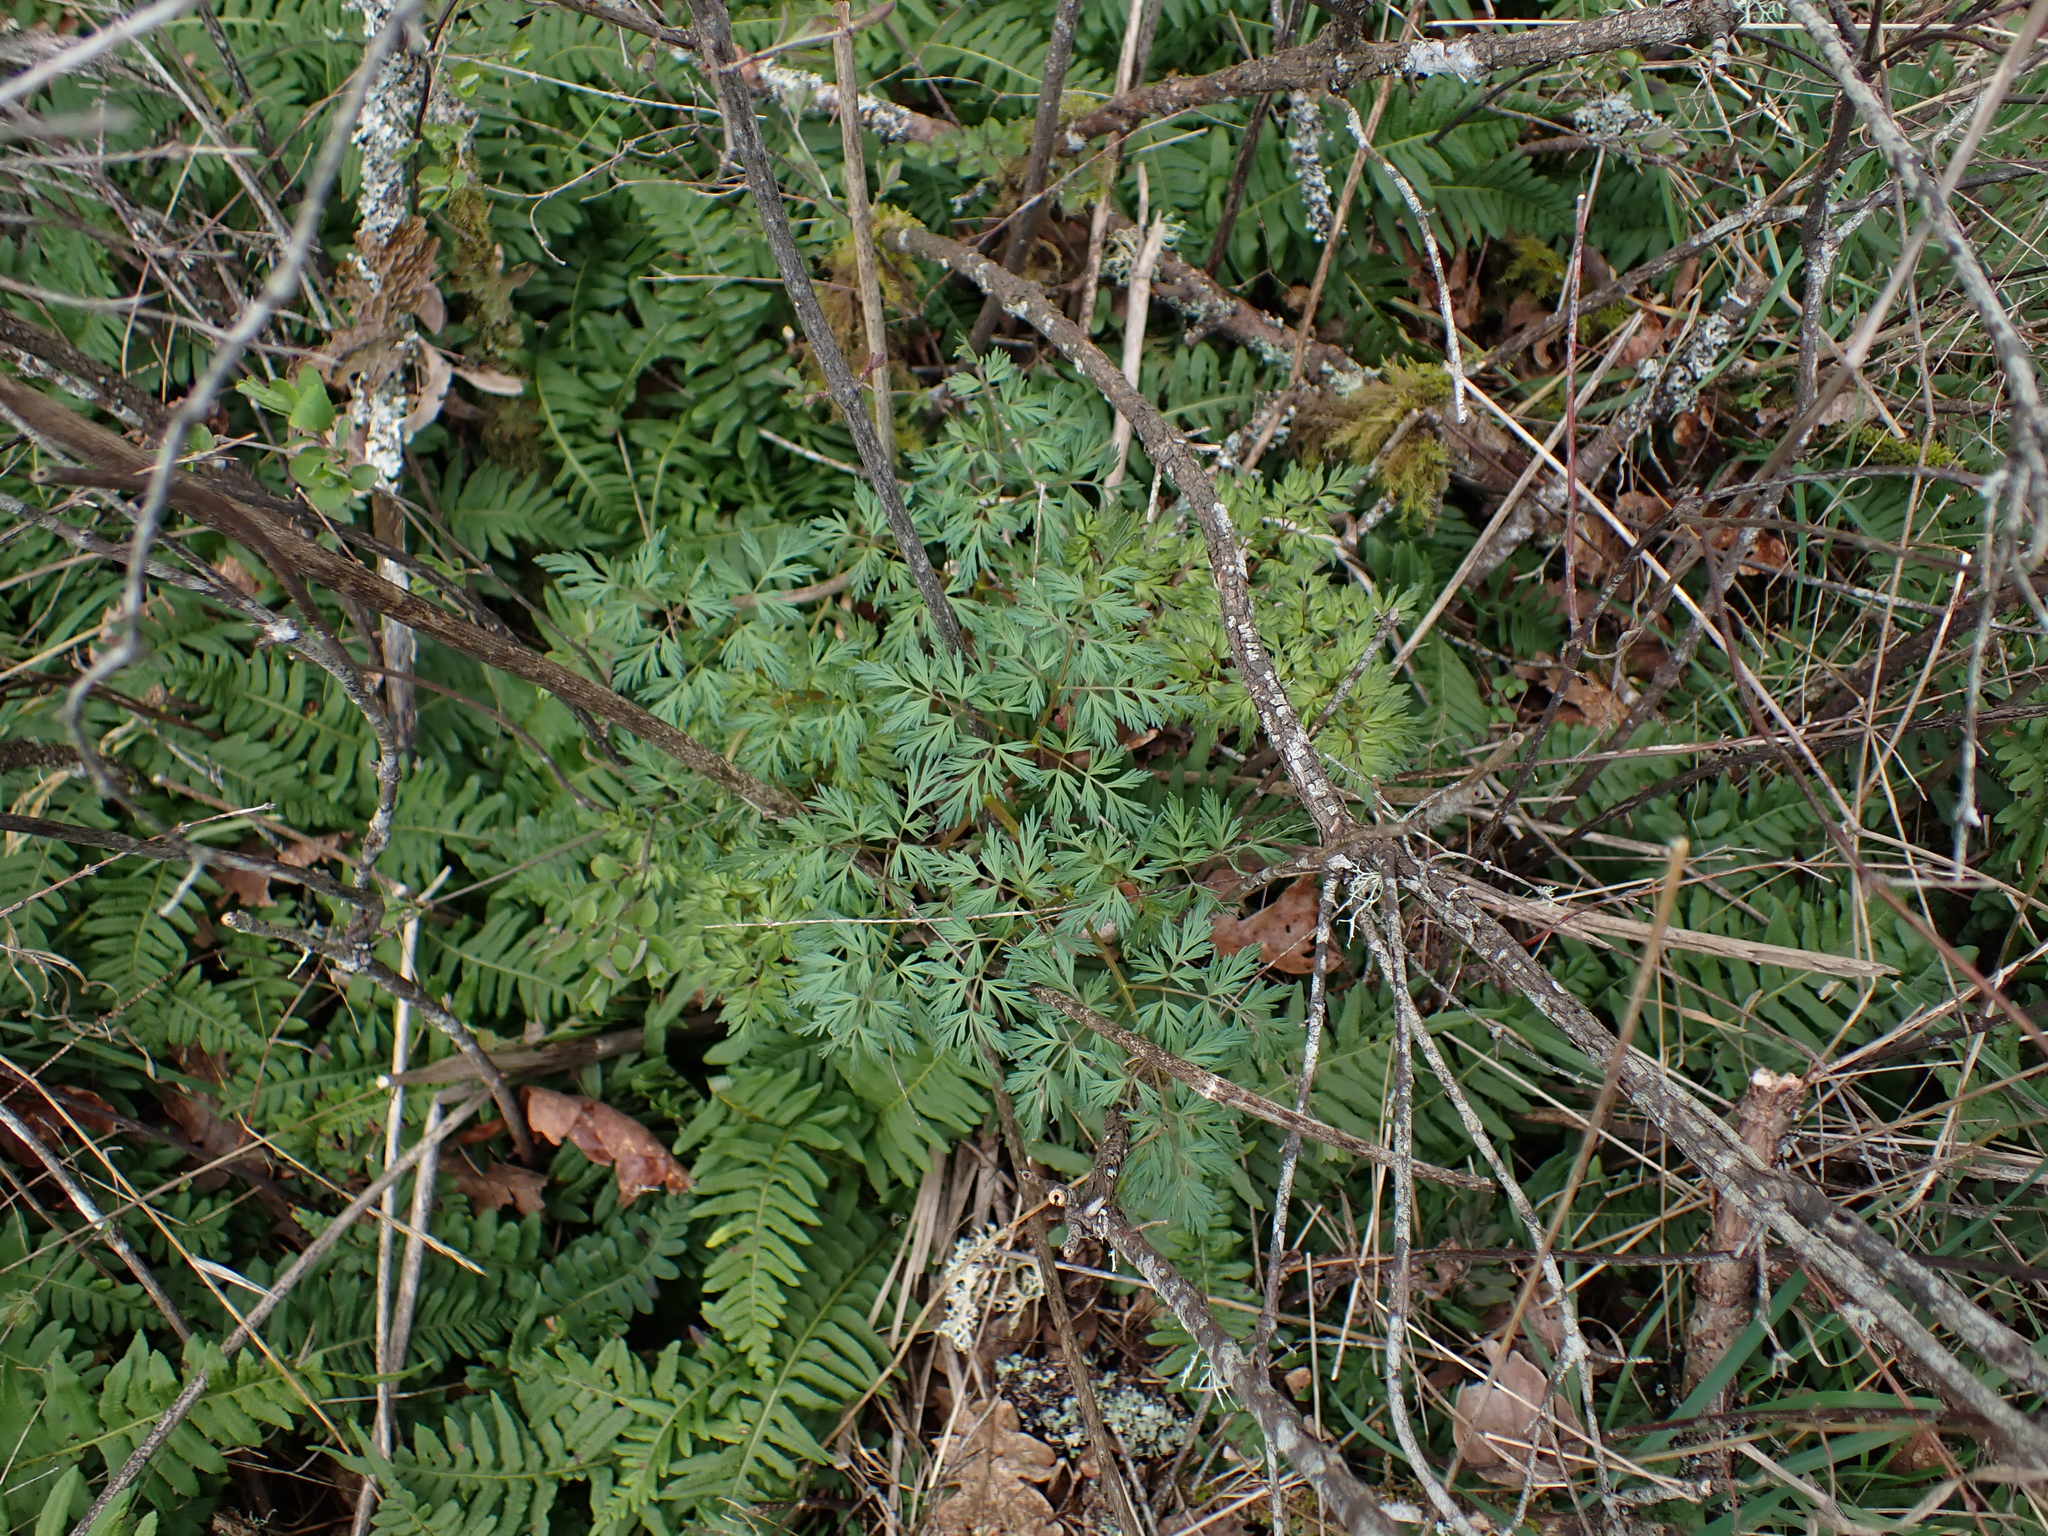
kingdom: Plantae
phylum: Tracheophyta
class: Magnoliopsida
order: Apiales
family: Apiaceae
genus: Lomatium
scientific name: Lomatium dissectum
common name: Lomatium
